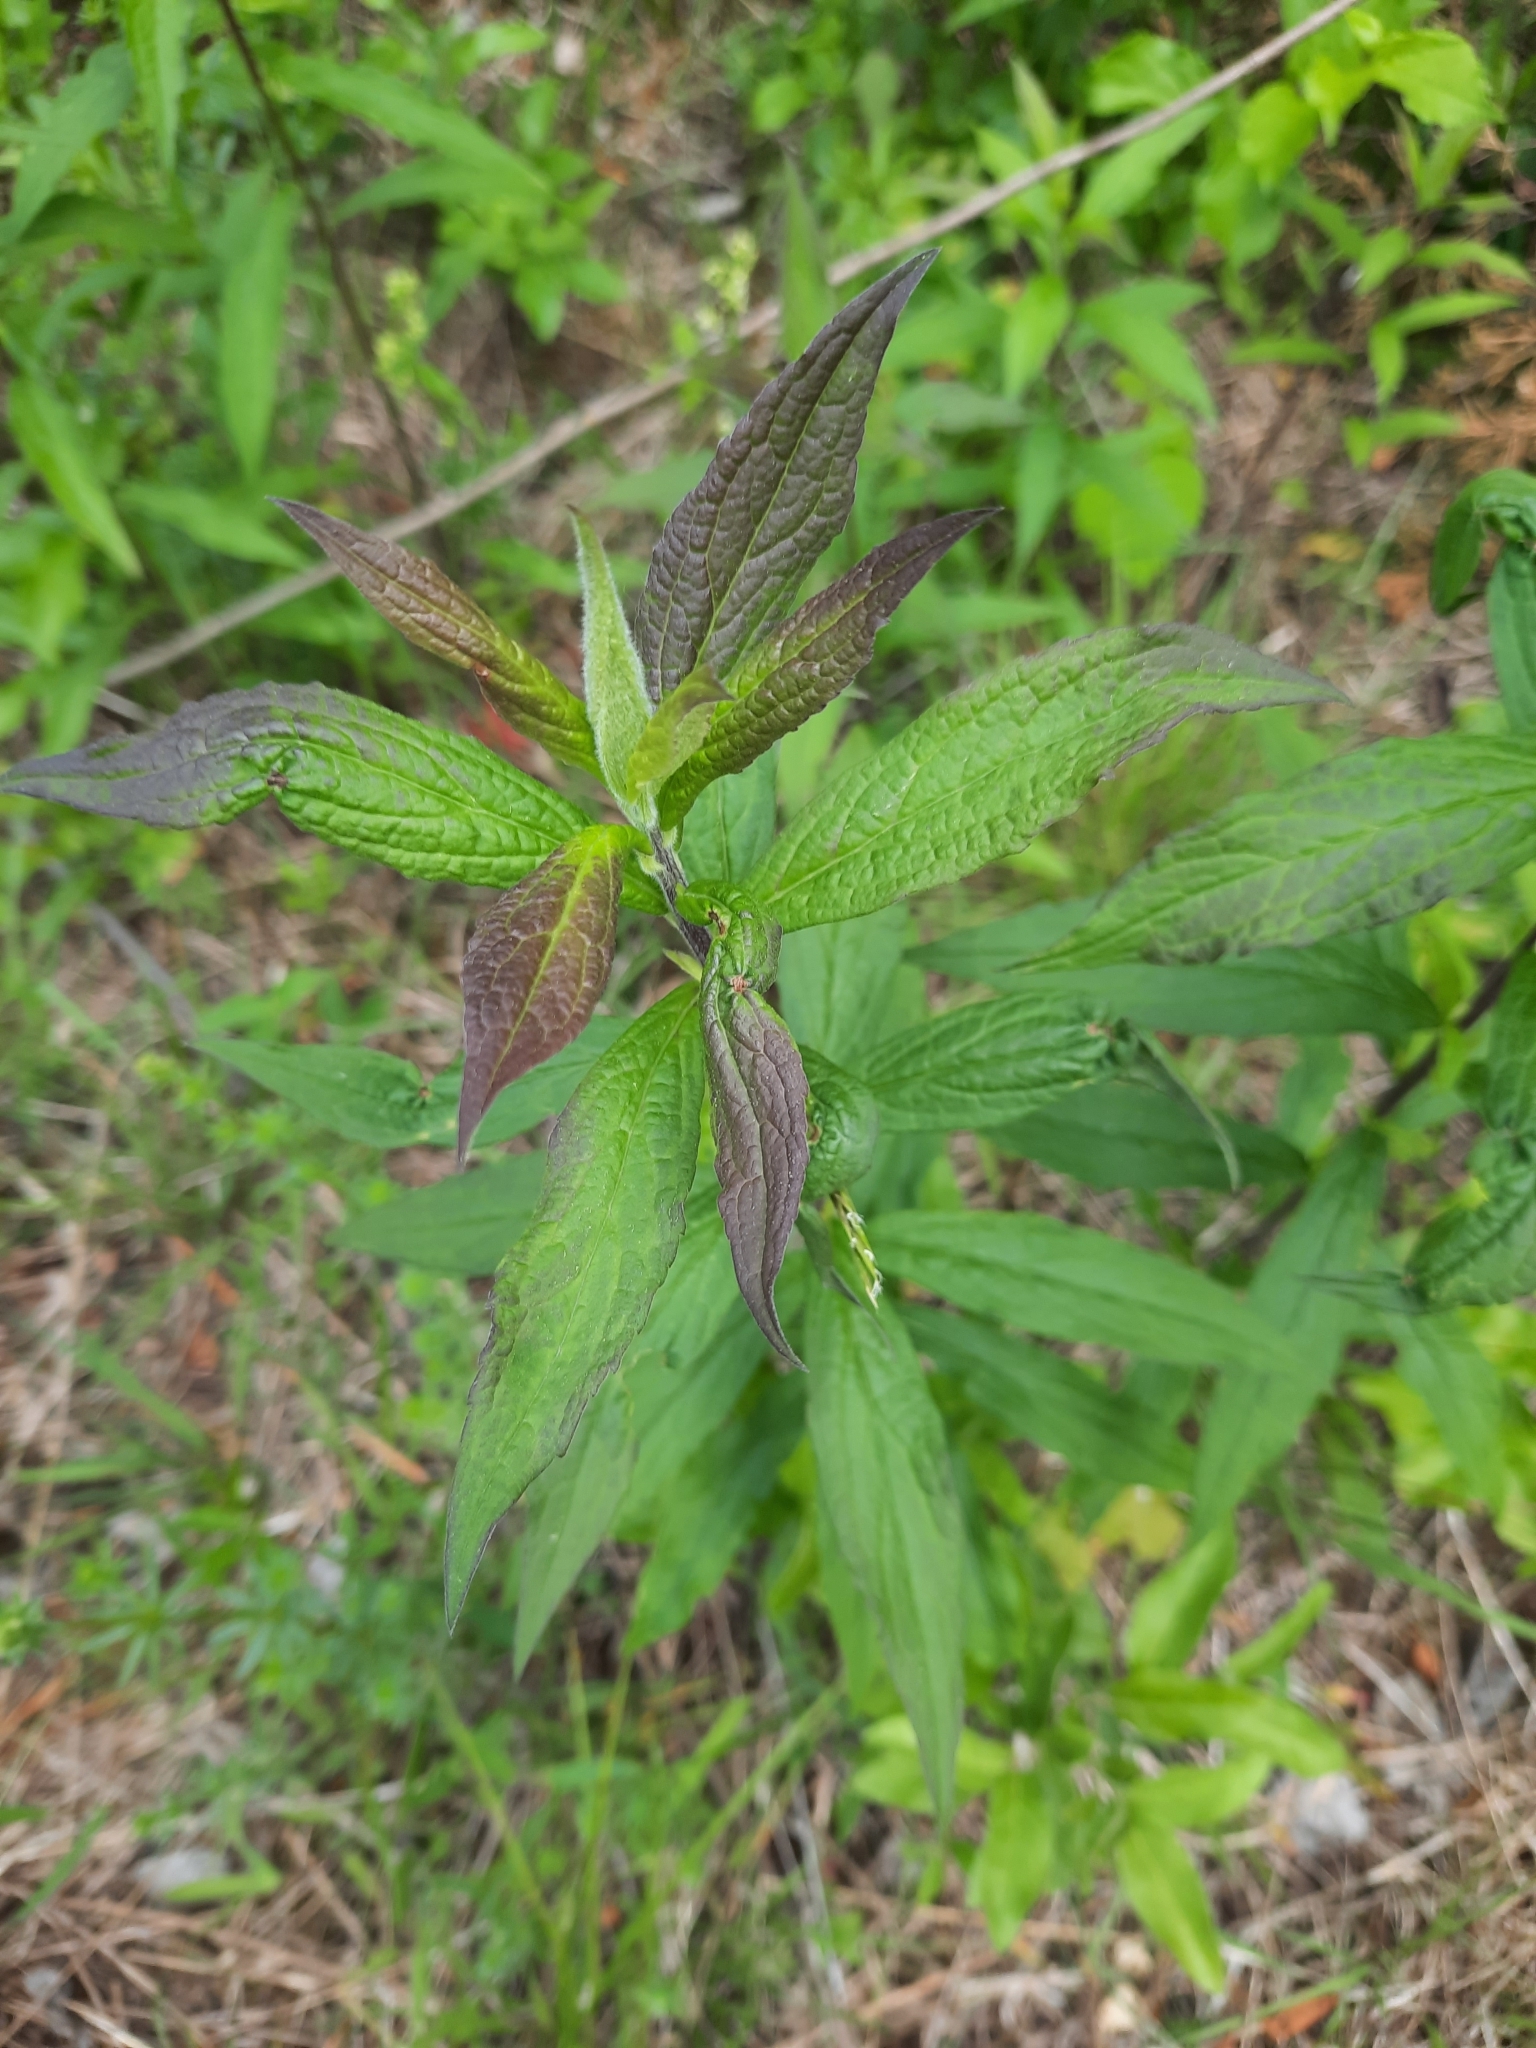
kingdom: Plantae
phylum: Tracheophyta
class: Magnoliopsida
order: Asterales
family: Asteraceae
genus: Solidago
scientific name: Solidago rugosa
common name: Rough-stemmed goldenrod
